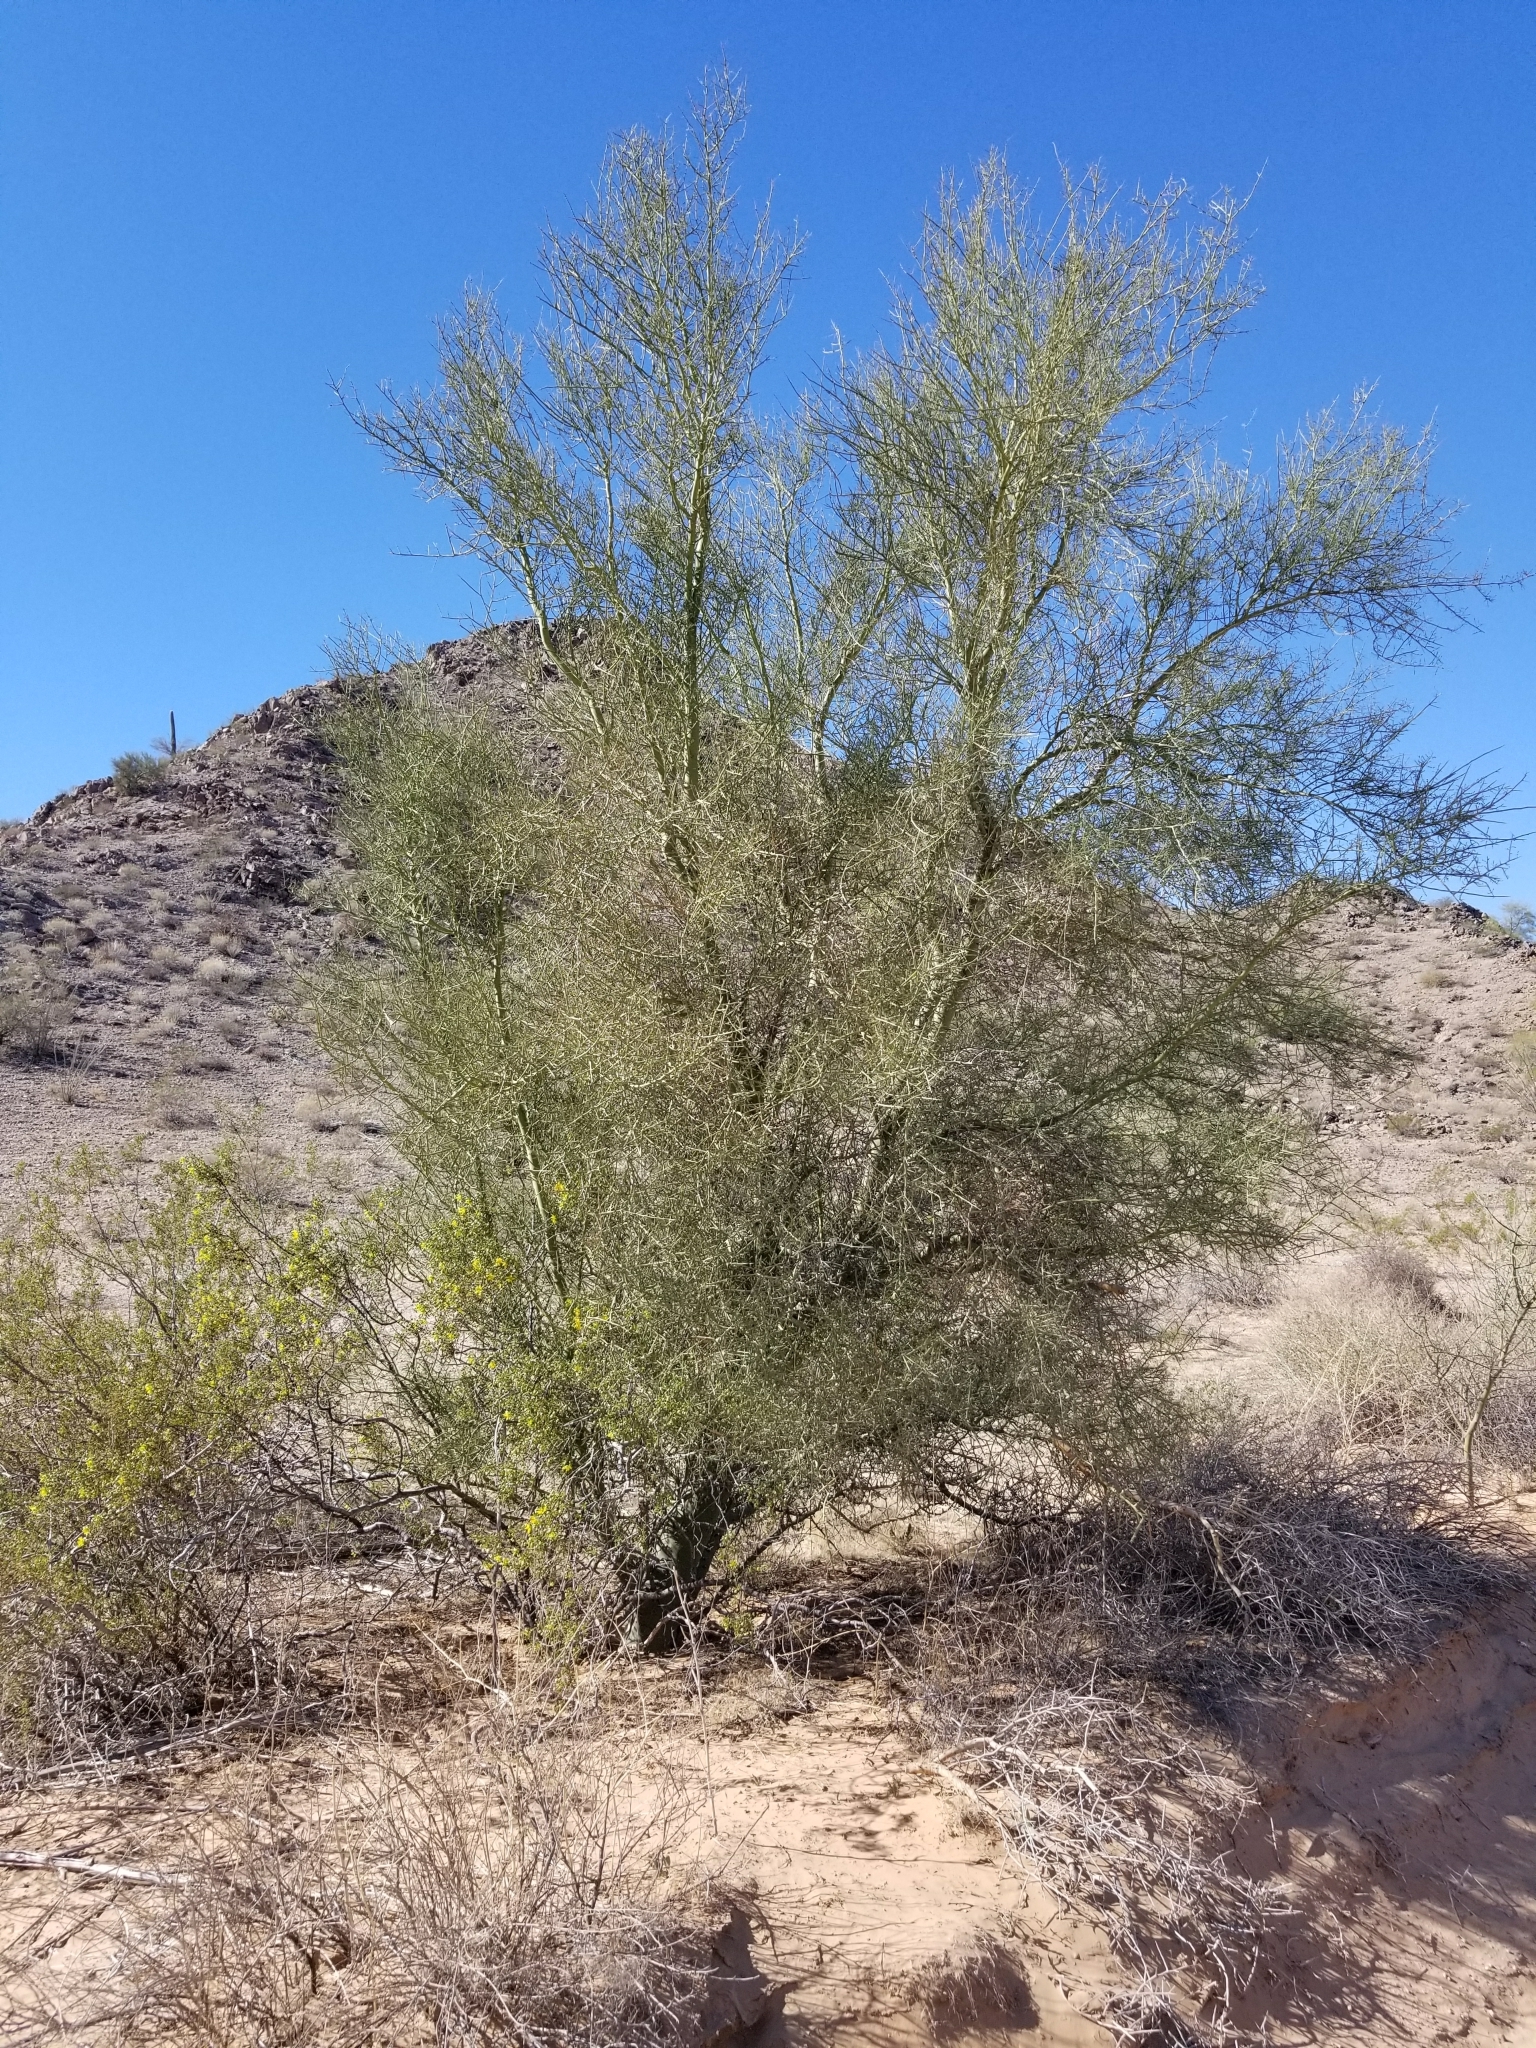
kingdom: Plantae
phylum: Tracheophyta
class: Magnoliopsida
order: Fabales
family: Fabaceae
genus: Parkinsonia
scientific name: Parkinsonia microphylla
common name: Yellow paloverde
